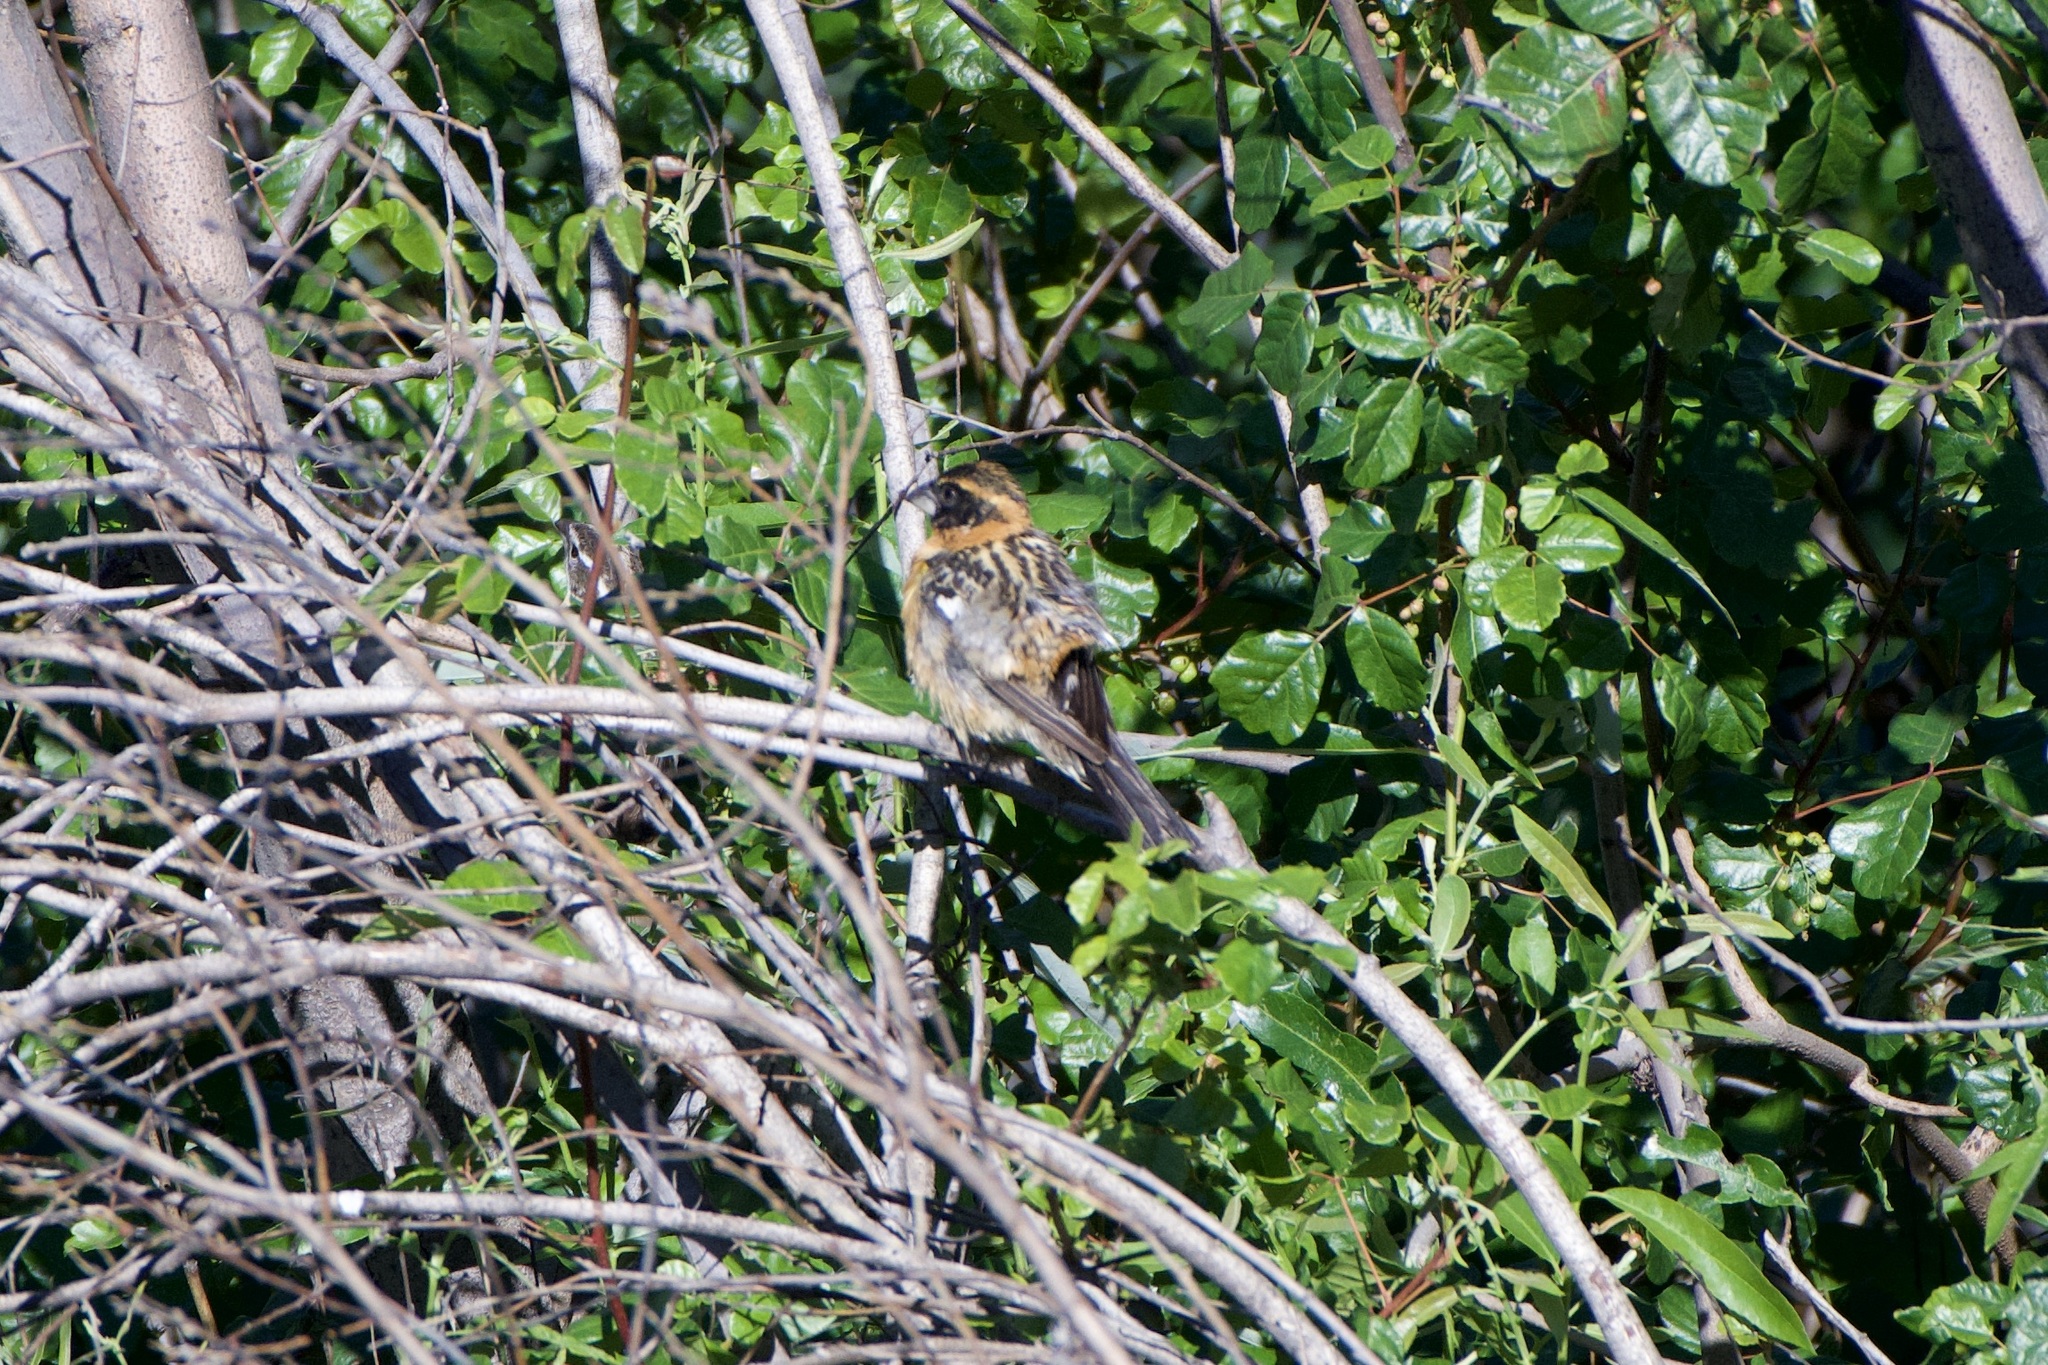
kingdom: Animalia
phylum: Chordata
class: Aves
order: Passeriformes
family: Cardinalidae
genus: Pheucticus
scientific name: Pheucticus melanocephalus
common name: Black-headed grosbeak
